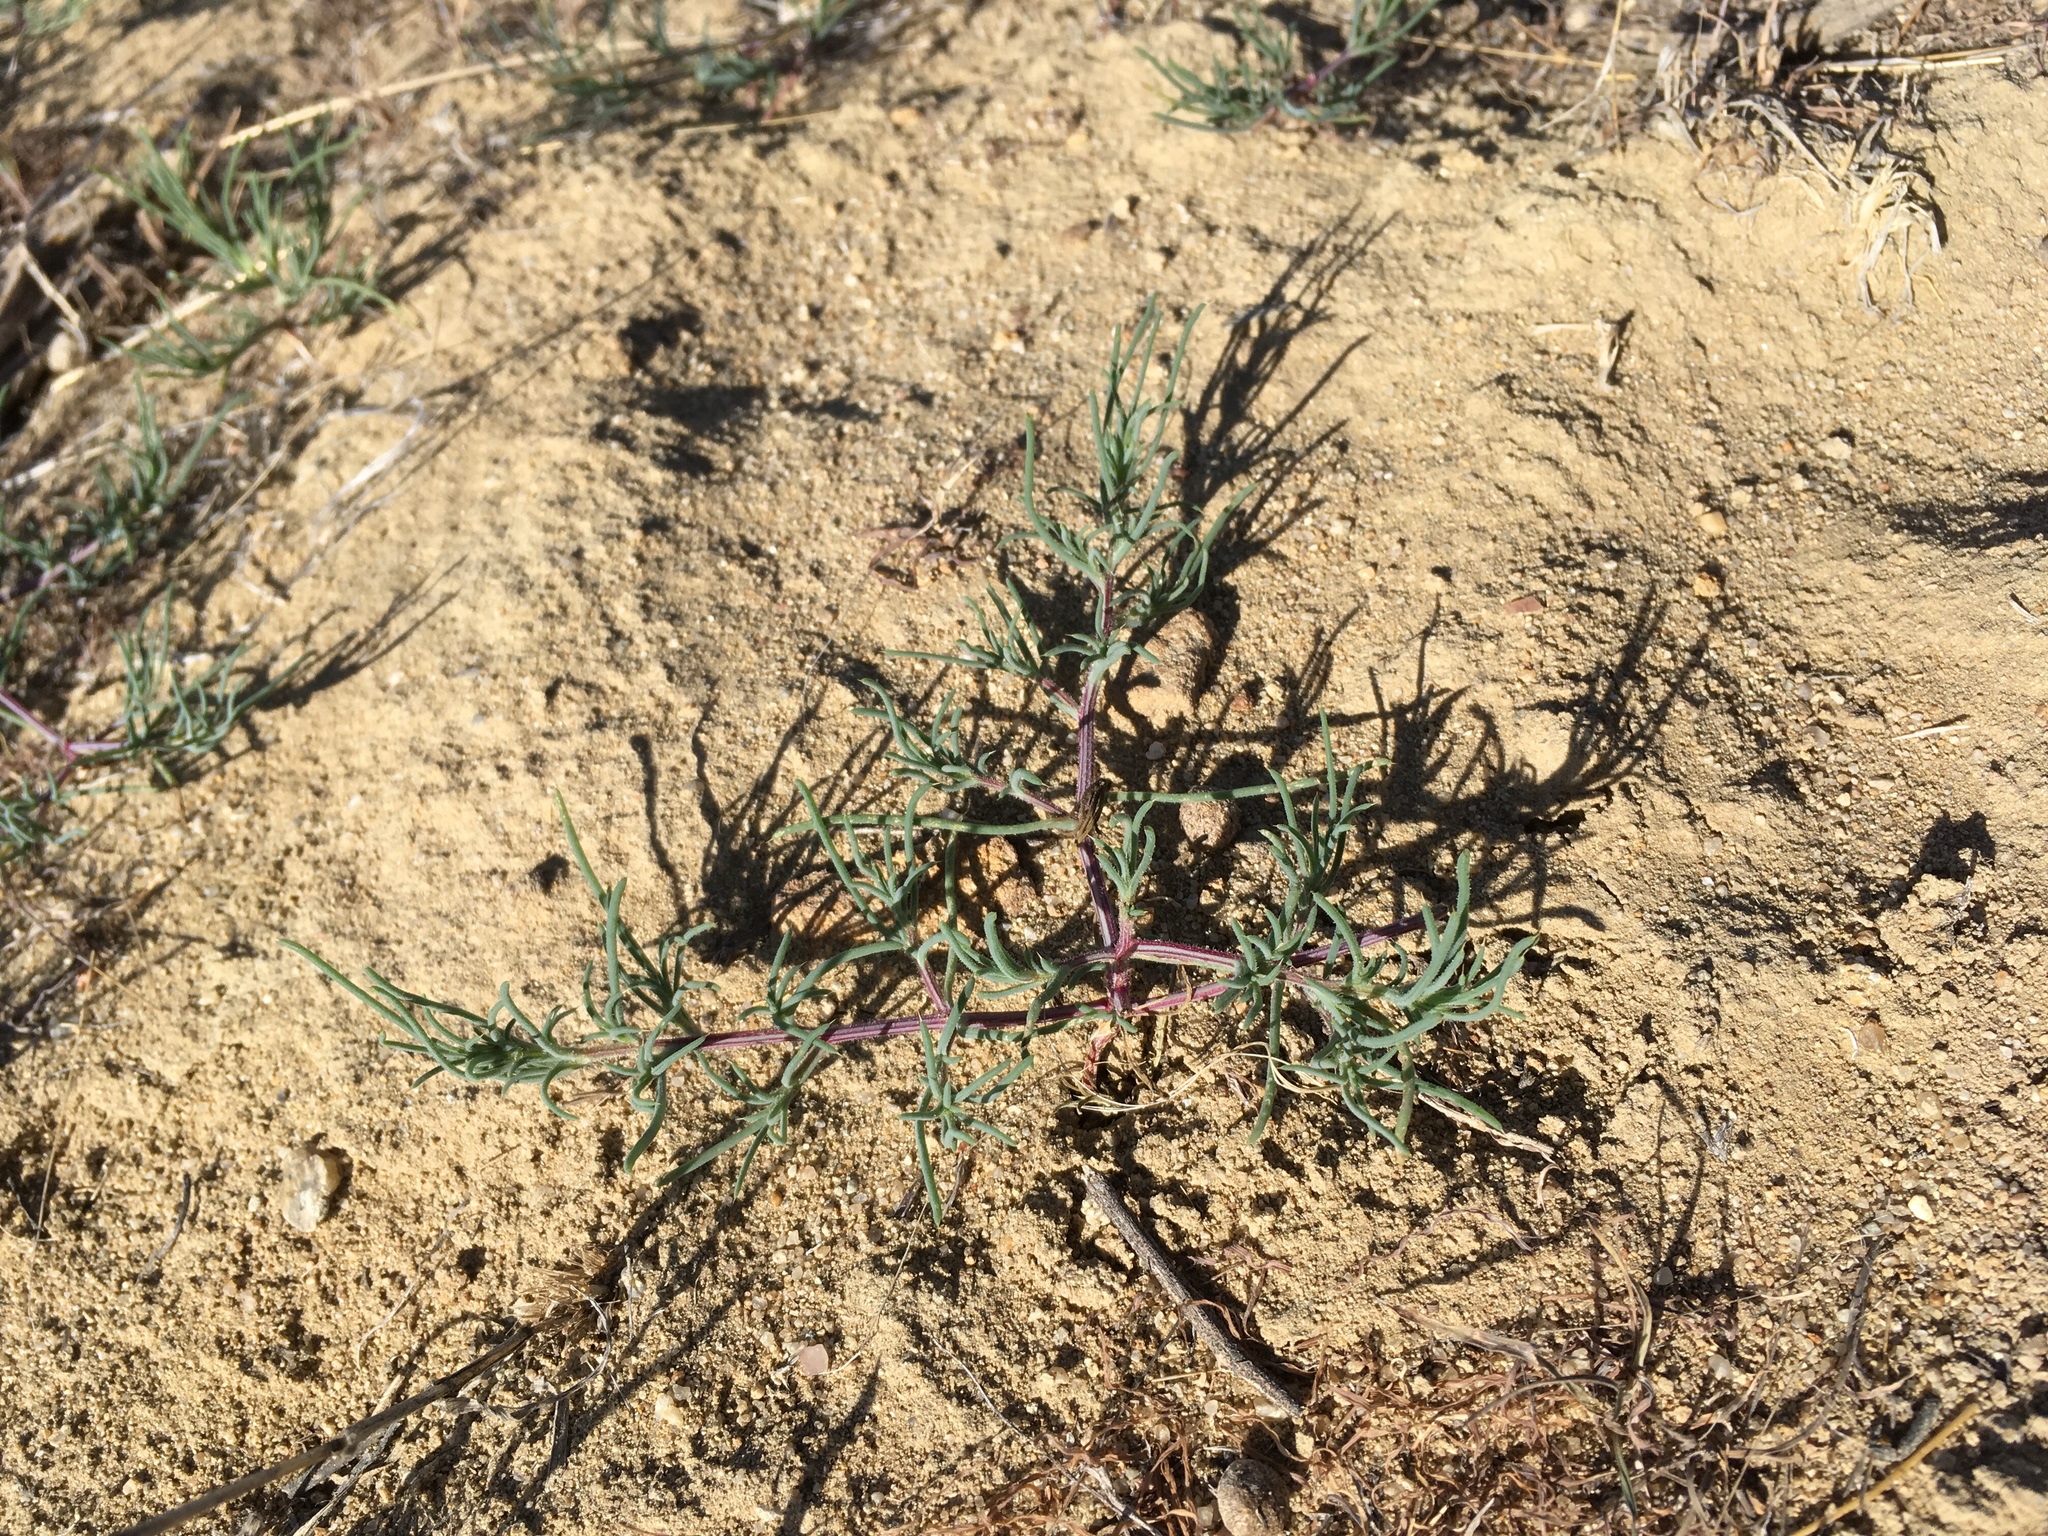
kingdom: Plantae
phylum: Tracheophyta
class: Magnoliopsida
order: Caryophyllales
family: Amaranthaceae
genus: Salsola
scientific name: Salsola tragus
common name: Prickly russian thistle
